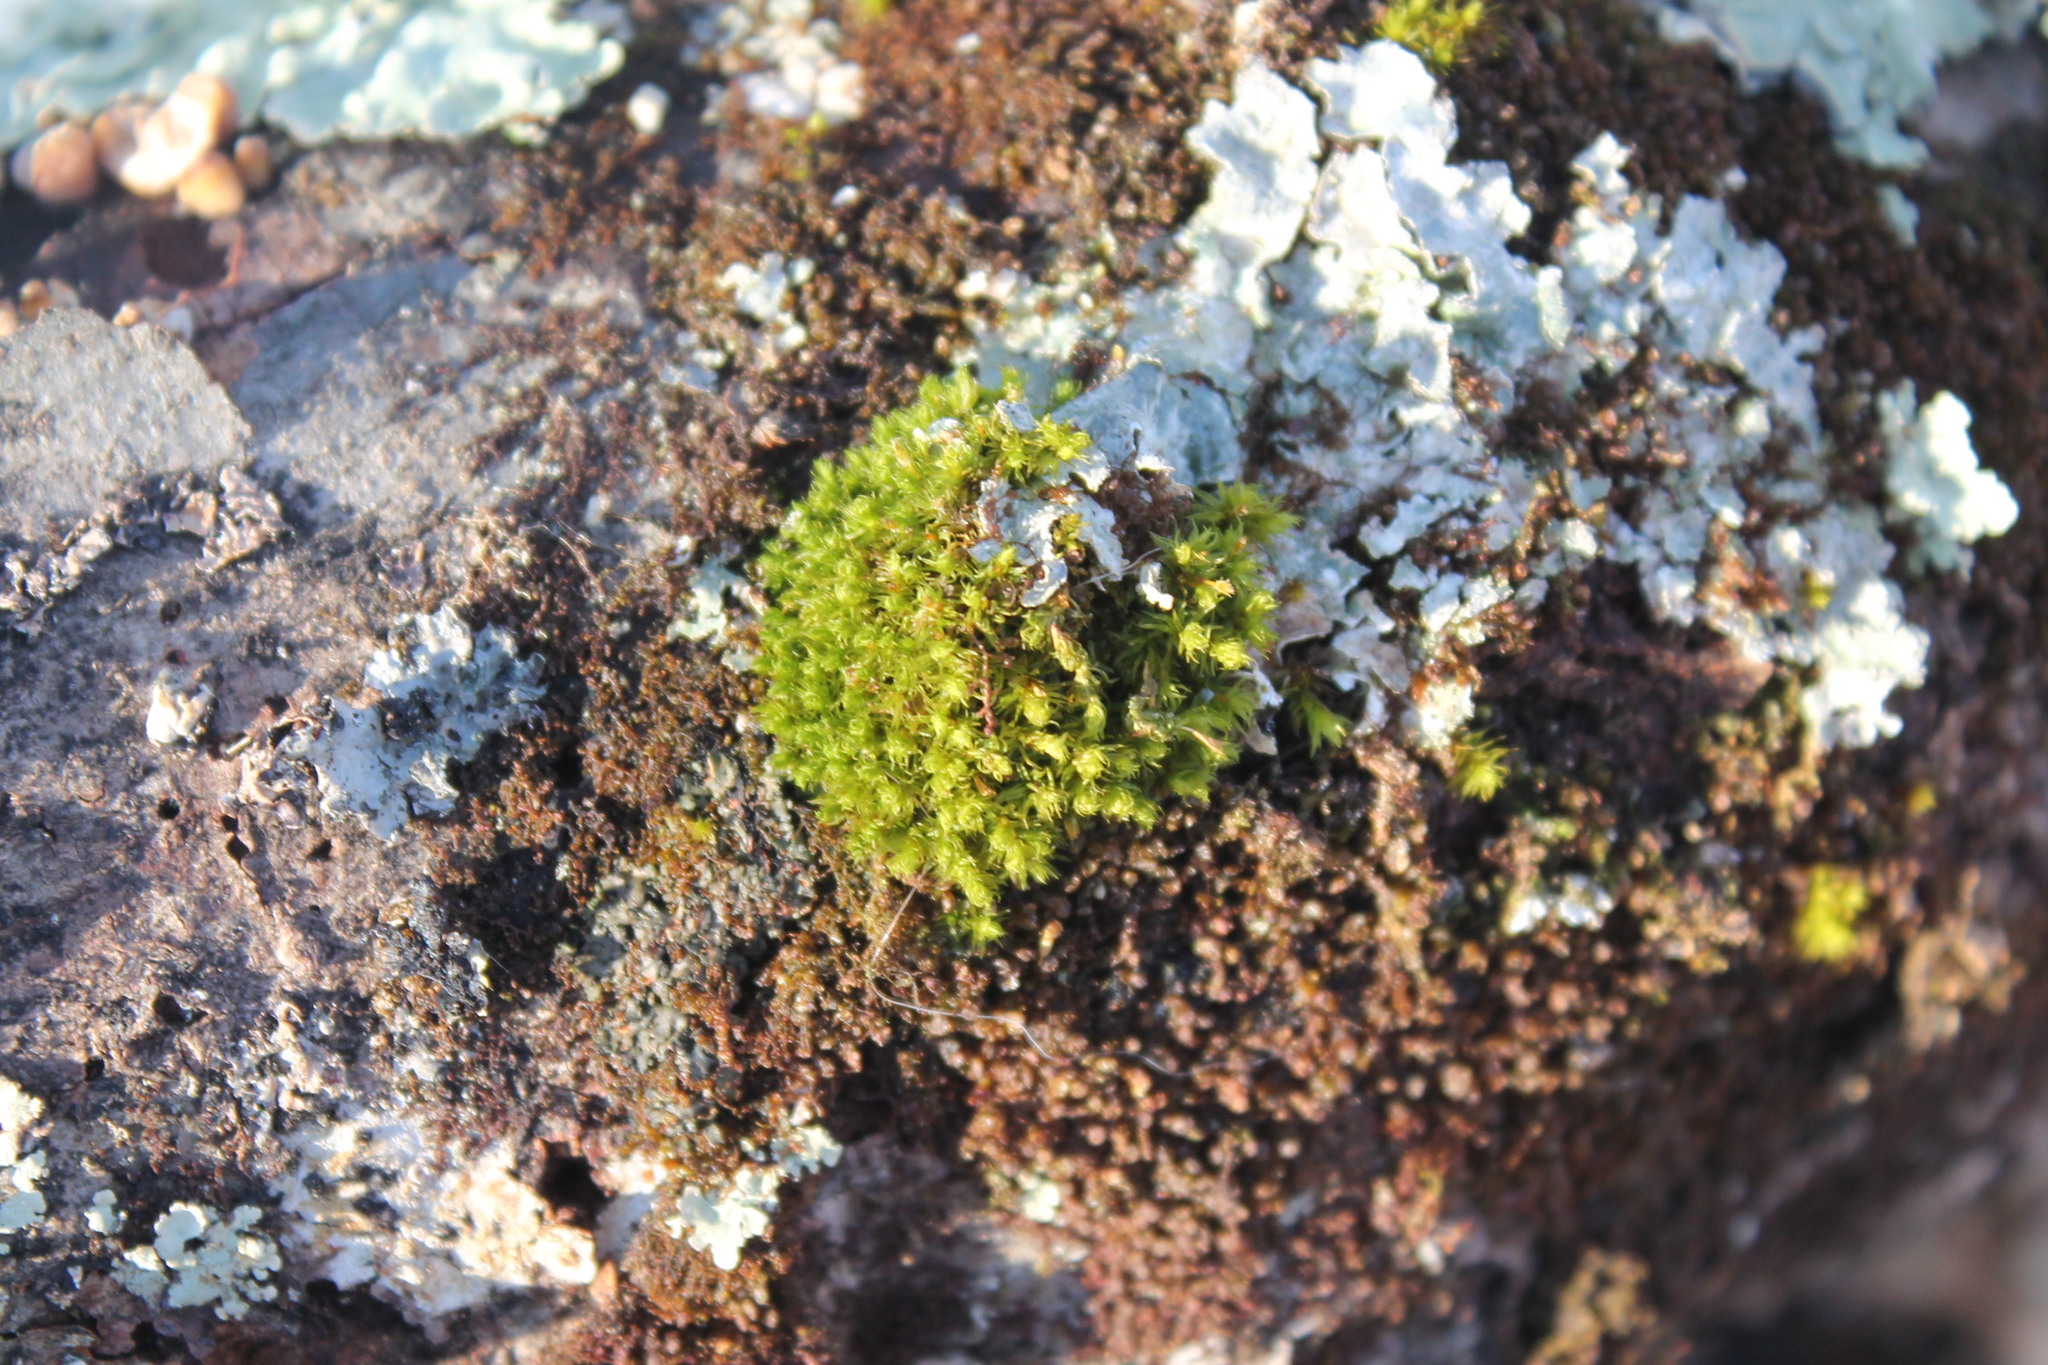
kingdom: Plantae
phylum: Bryophyta
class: Bryopsida
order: Orthotrichales
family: Orthotrichaceae
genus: Ulota
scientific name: Ulota crispa
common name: Crisped pincushion moss
